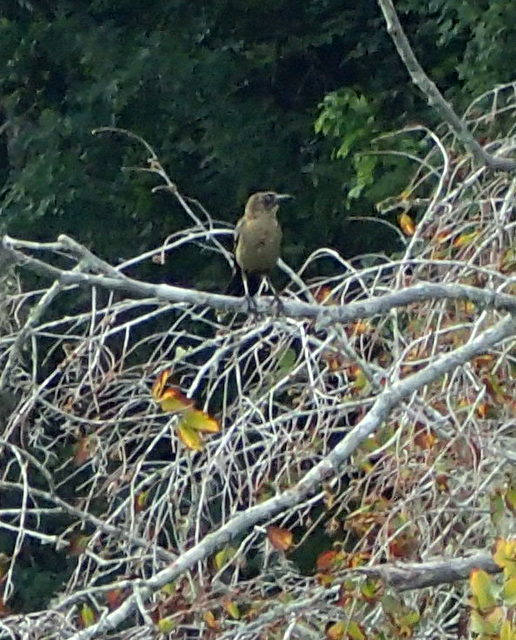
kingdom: Animalia
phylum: Chordata
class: Aves
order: Passeriformes
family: Icteridae
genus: Quiscalus
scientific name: Quiscalus major
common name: Boat-tailed grackle
